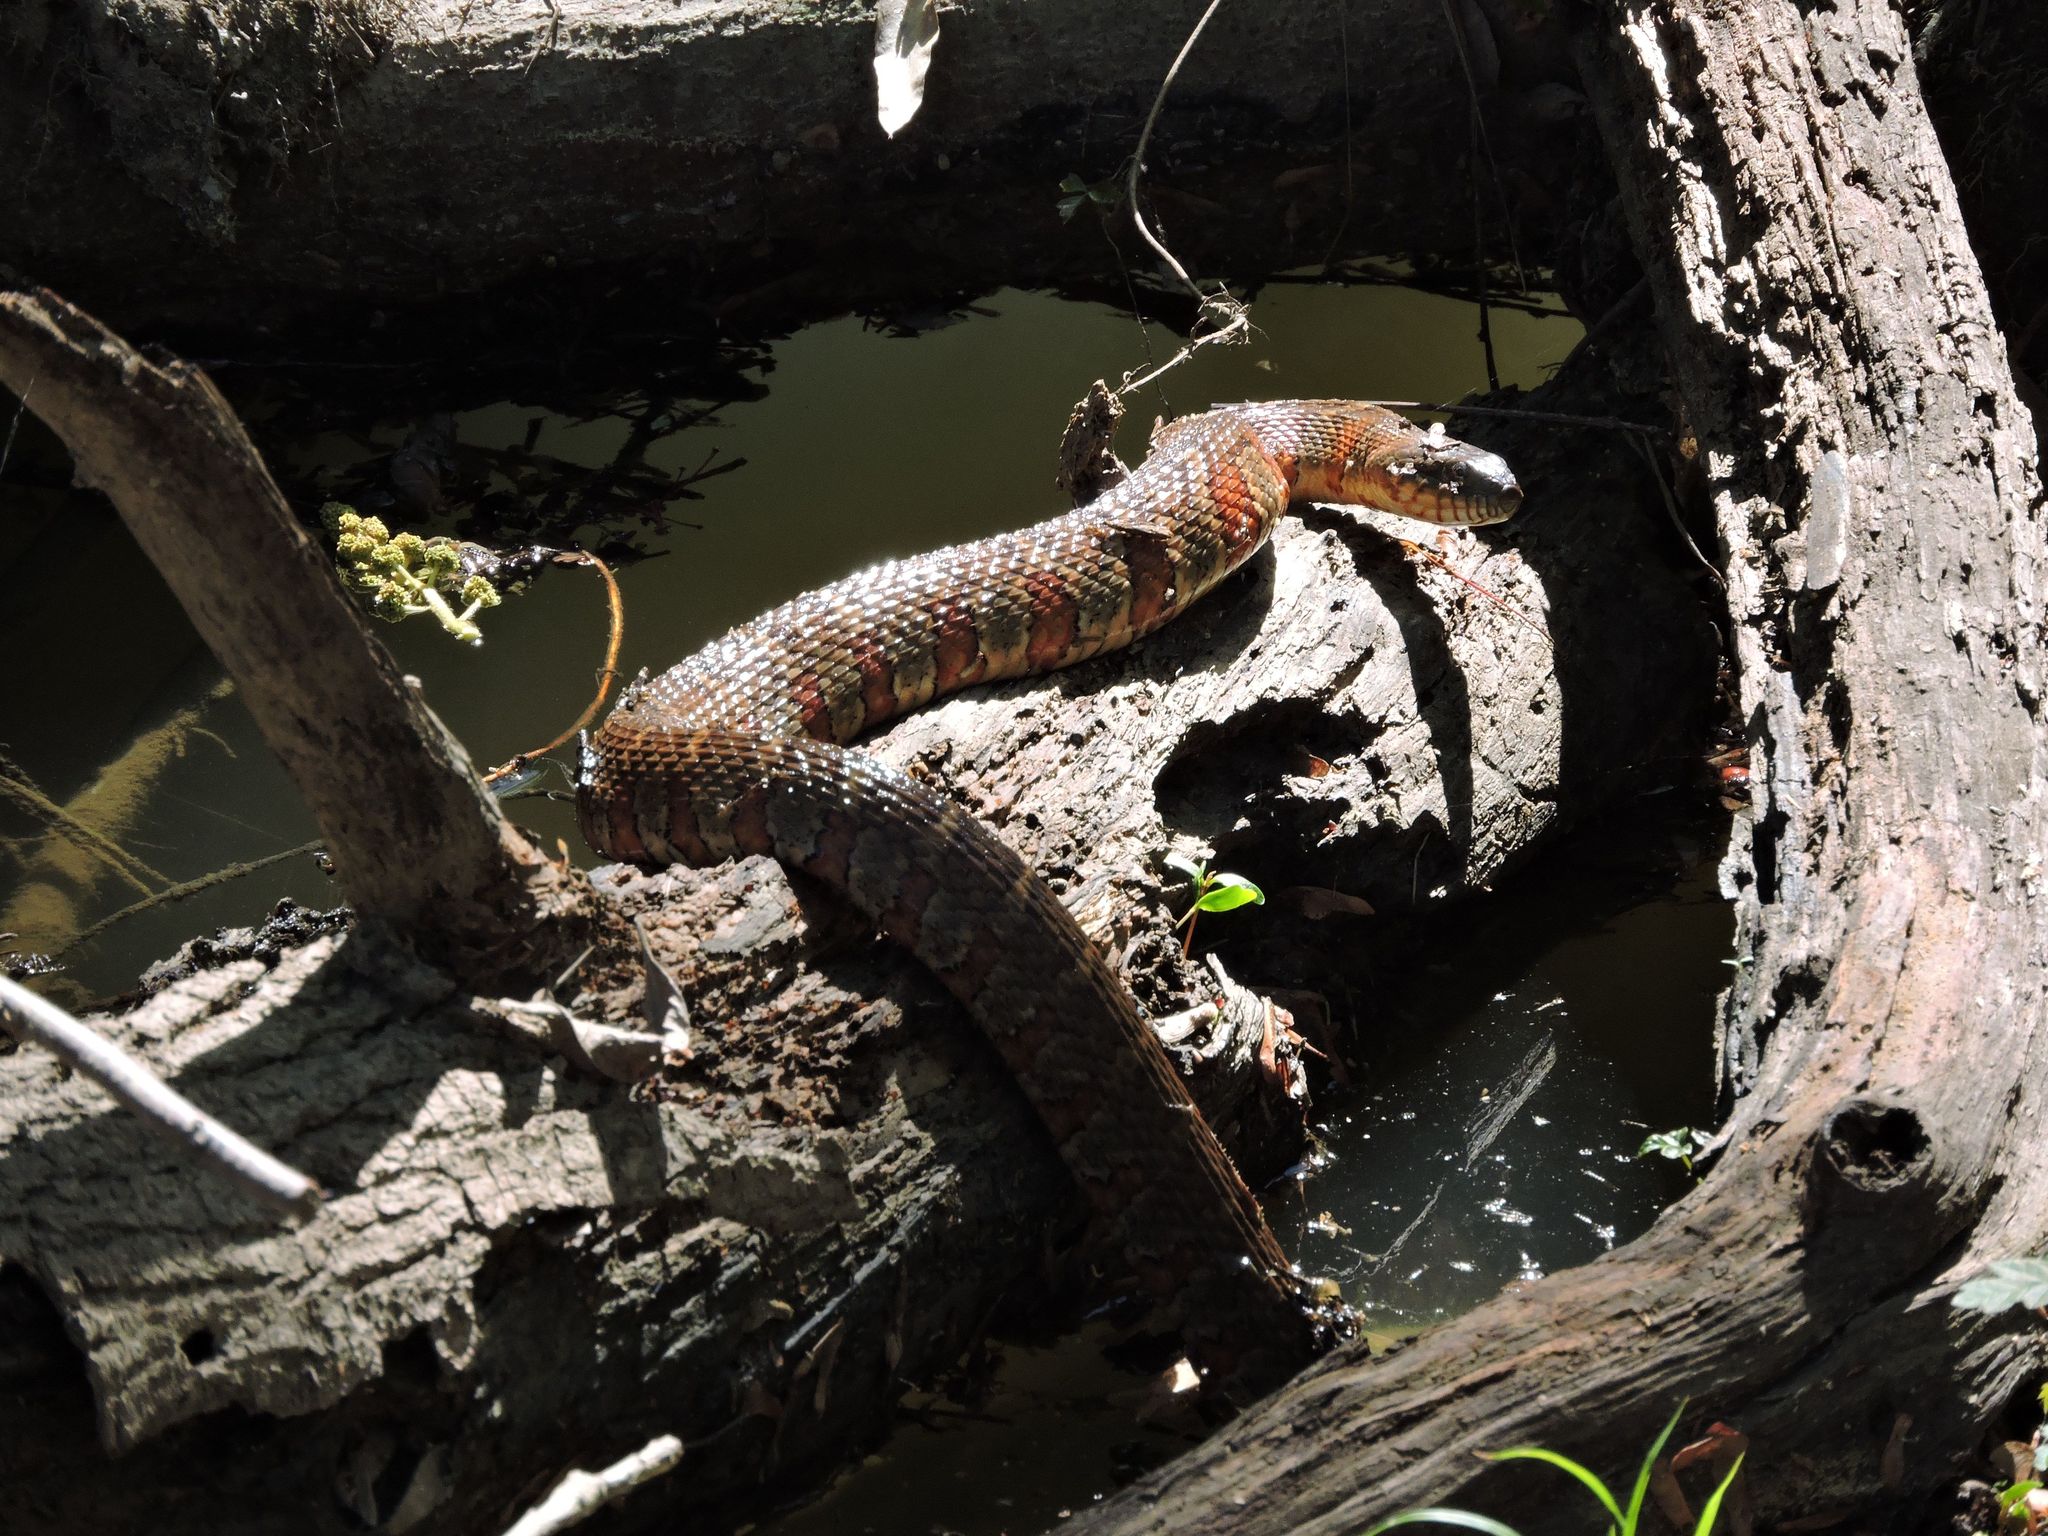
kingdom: Animalia
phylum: Chordata
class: Squamata
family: Colubridae
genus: Nerodia
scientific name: Nerodia sipedon
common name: Northern water snake
